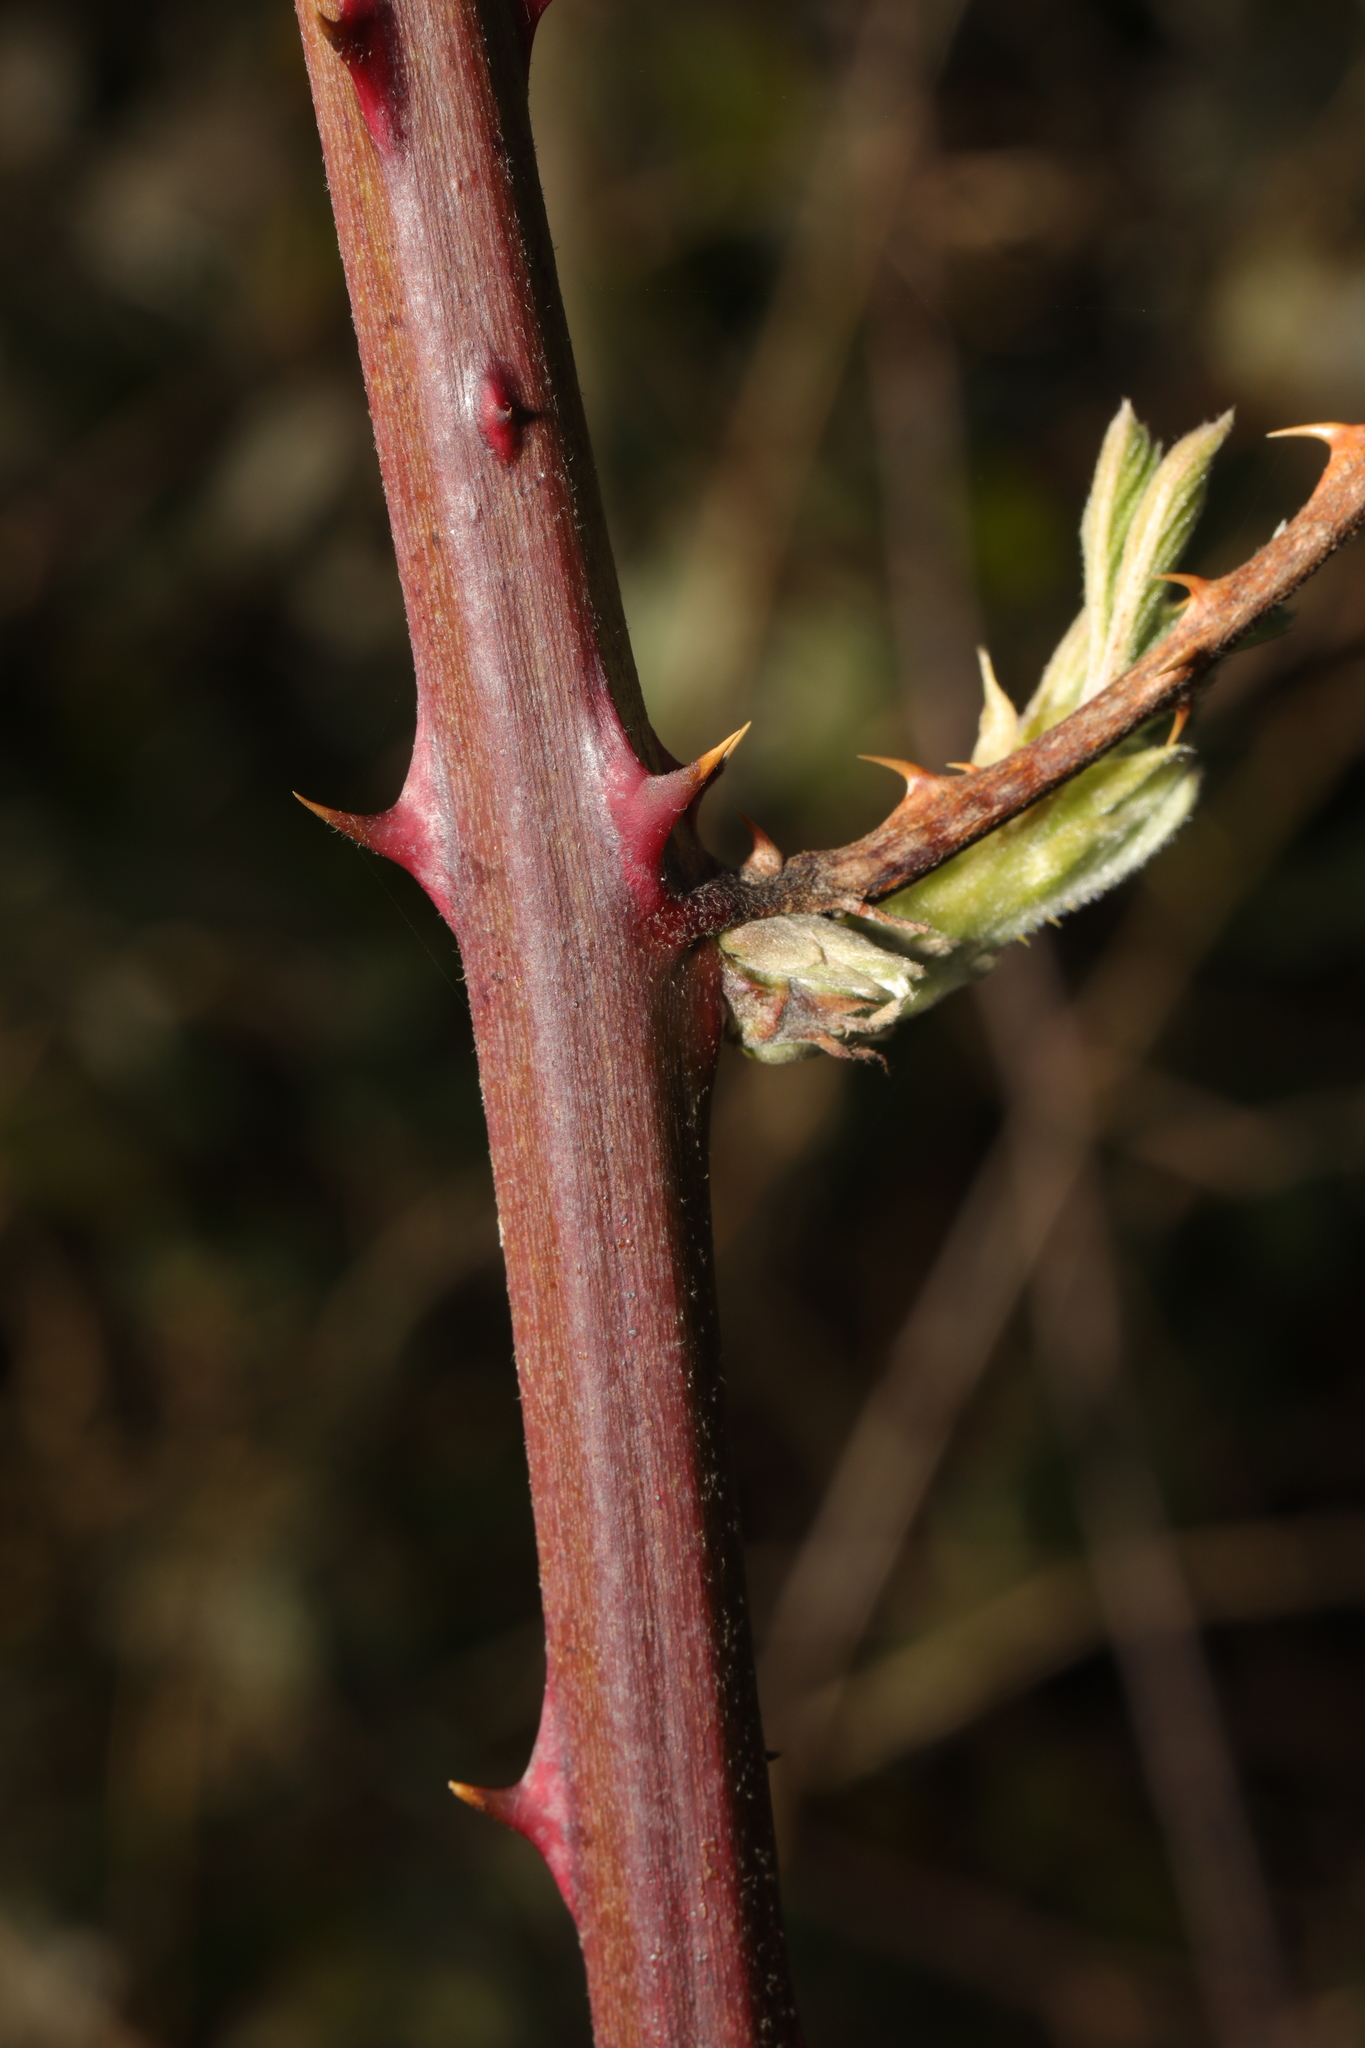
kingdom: Plantae
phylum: Tracheophyta
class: Magnoliopsida
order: Rosales
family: Rosaceae
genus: Rubus
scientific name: Rubus armeniacus
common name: Himalayan blackberry
